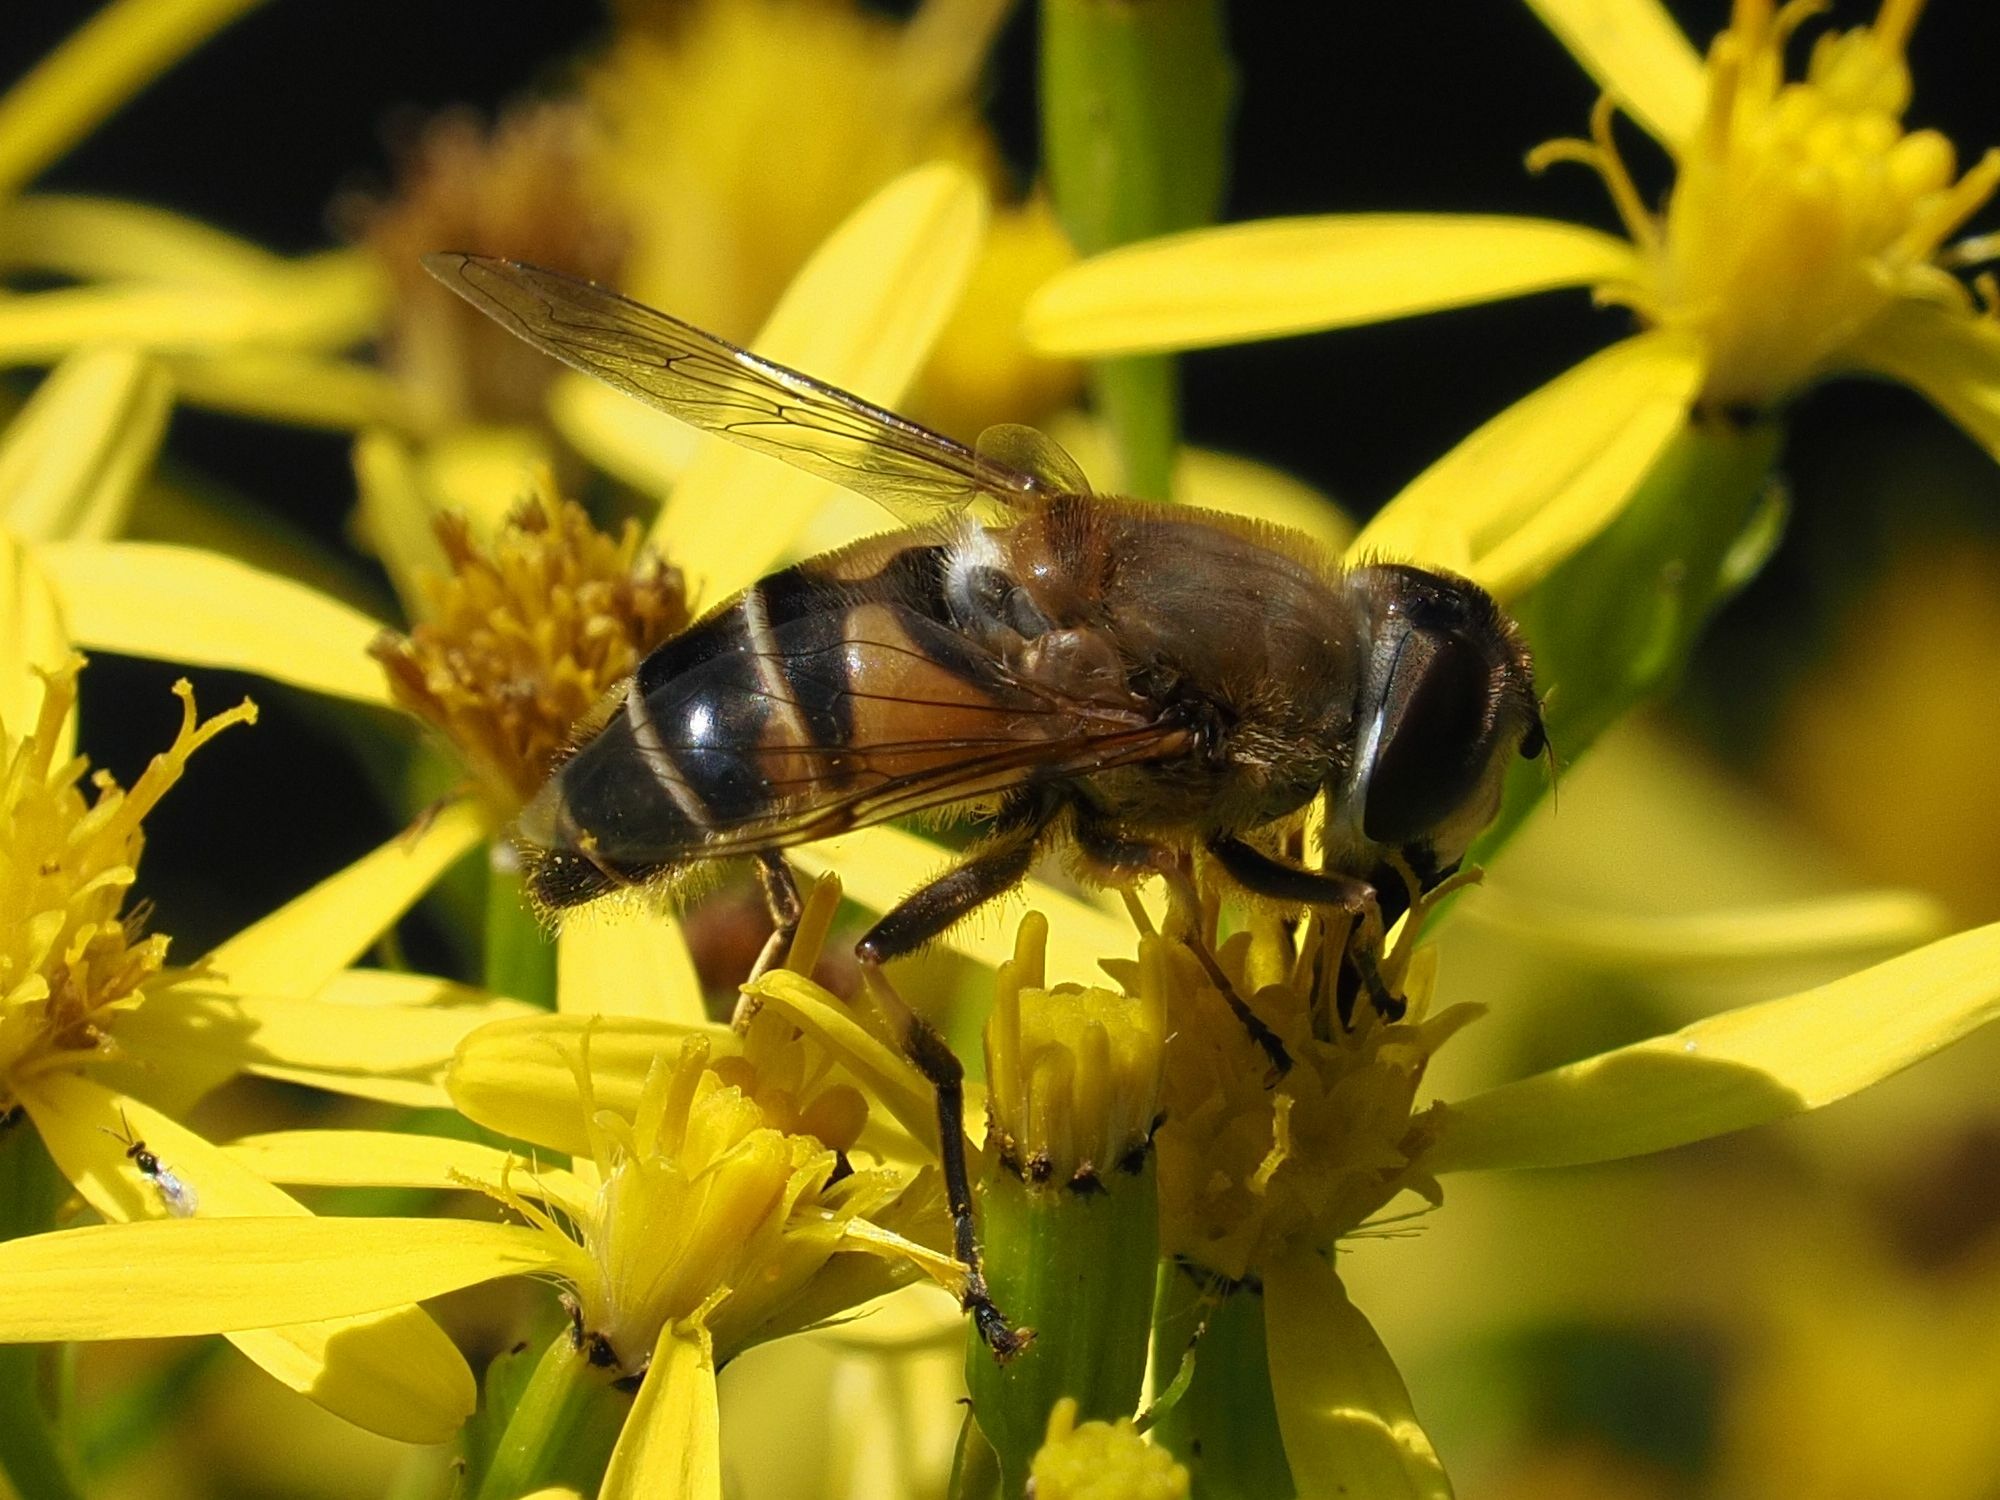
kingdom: Animalia
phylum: Arthropoda
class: Insecta
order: Diptera
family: Syrphidae
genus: Eristalis
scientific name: Eristalis pertinax
